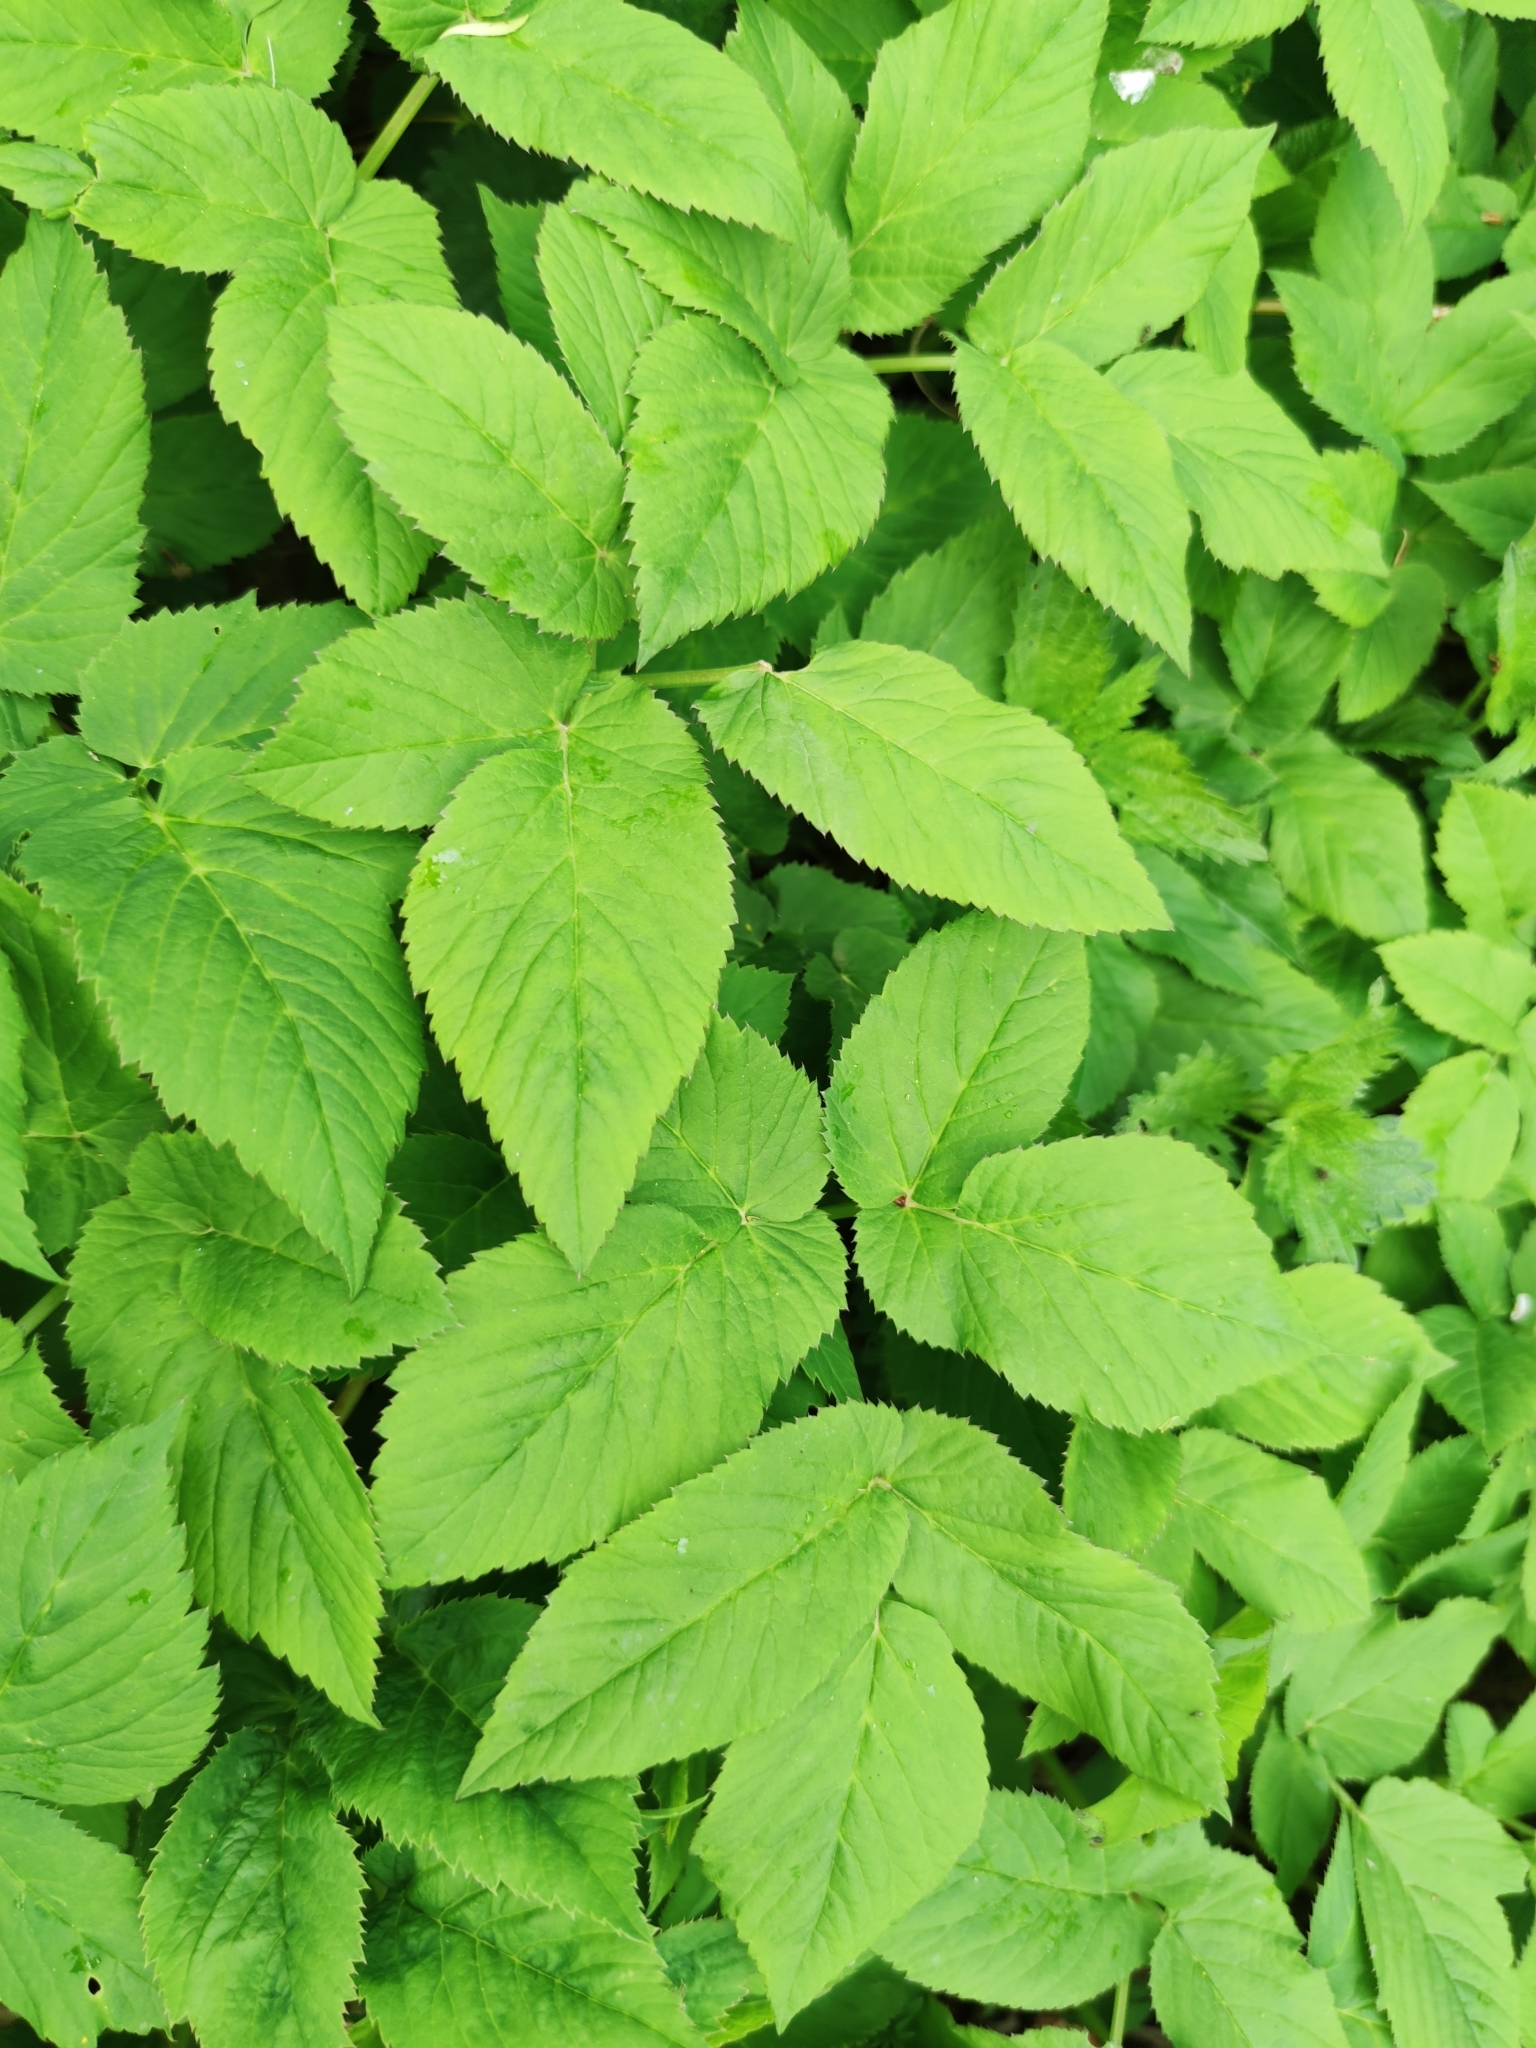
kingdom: Plantae
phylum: Tracheophyta
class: Magnoliopsida
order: Apiales
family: Apiaceae
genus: Aegopodium
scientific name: Aegopodium podagraria
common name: Ground-elder
